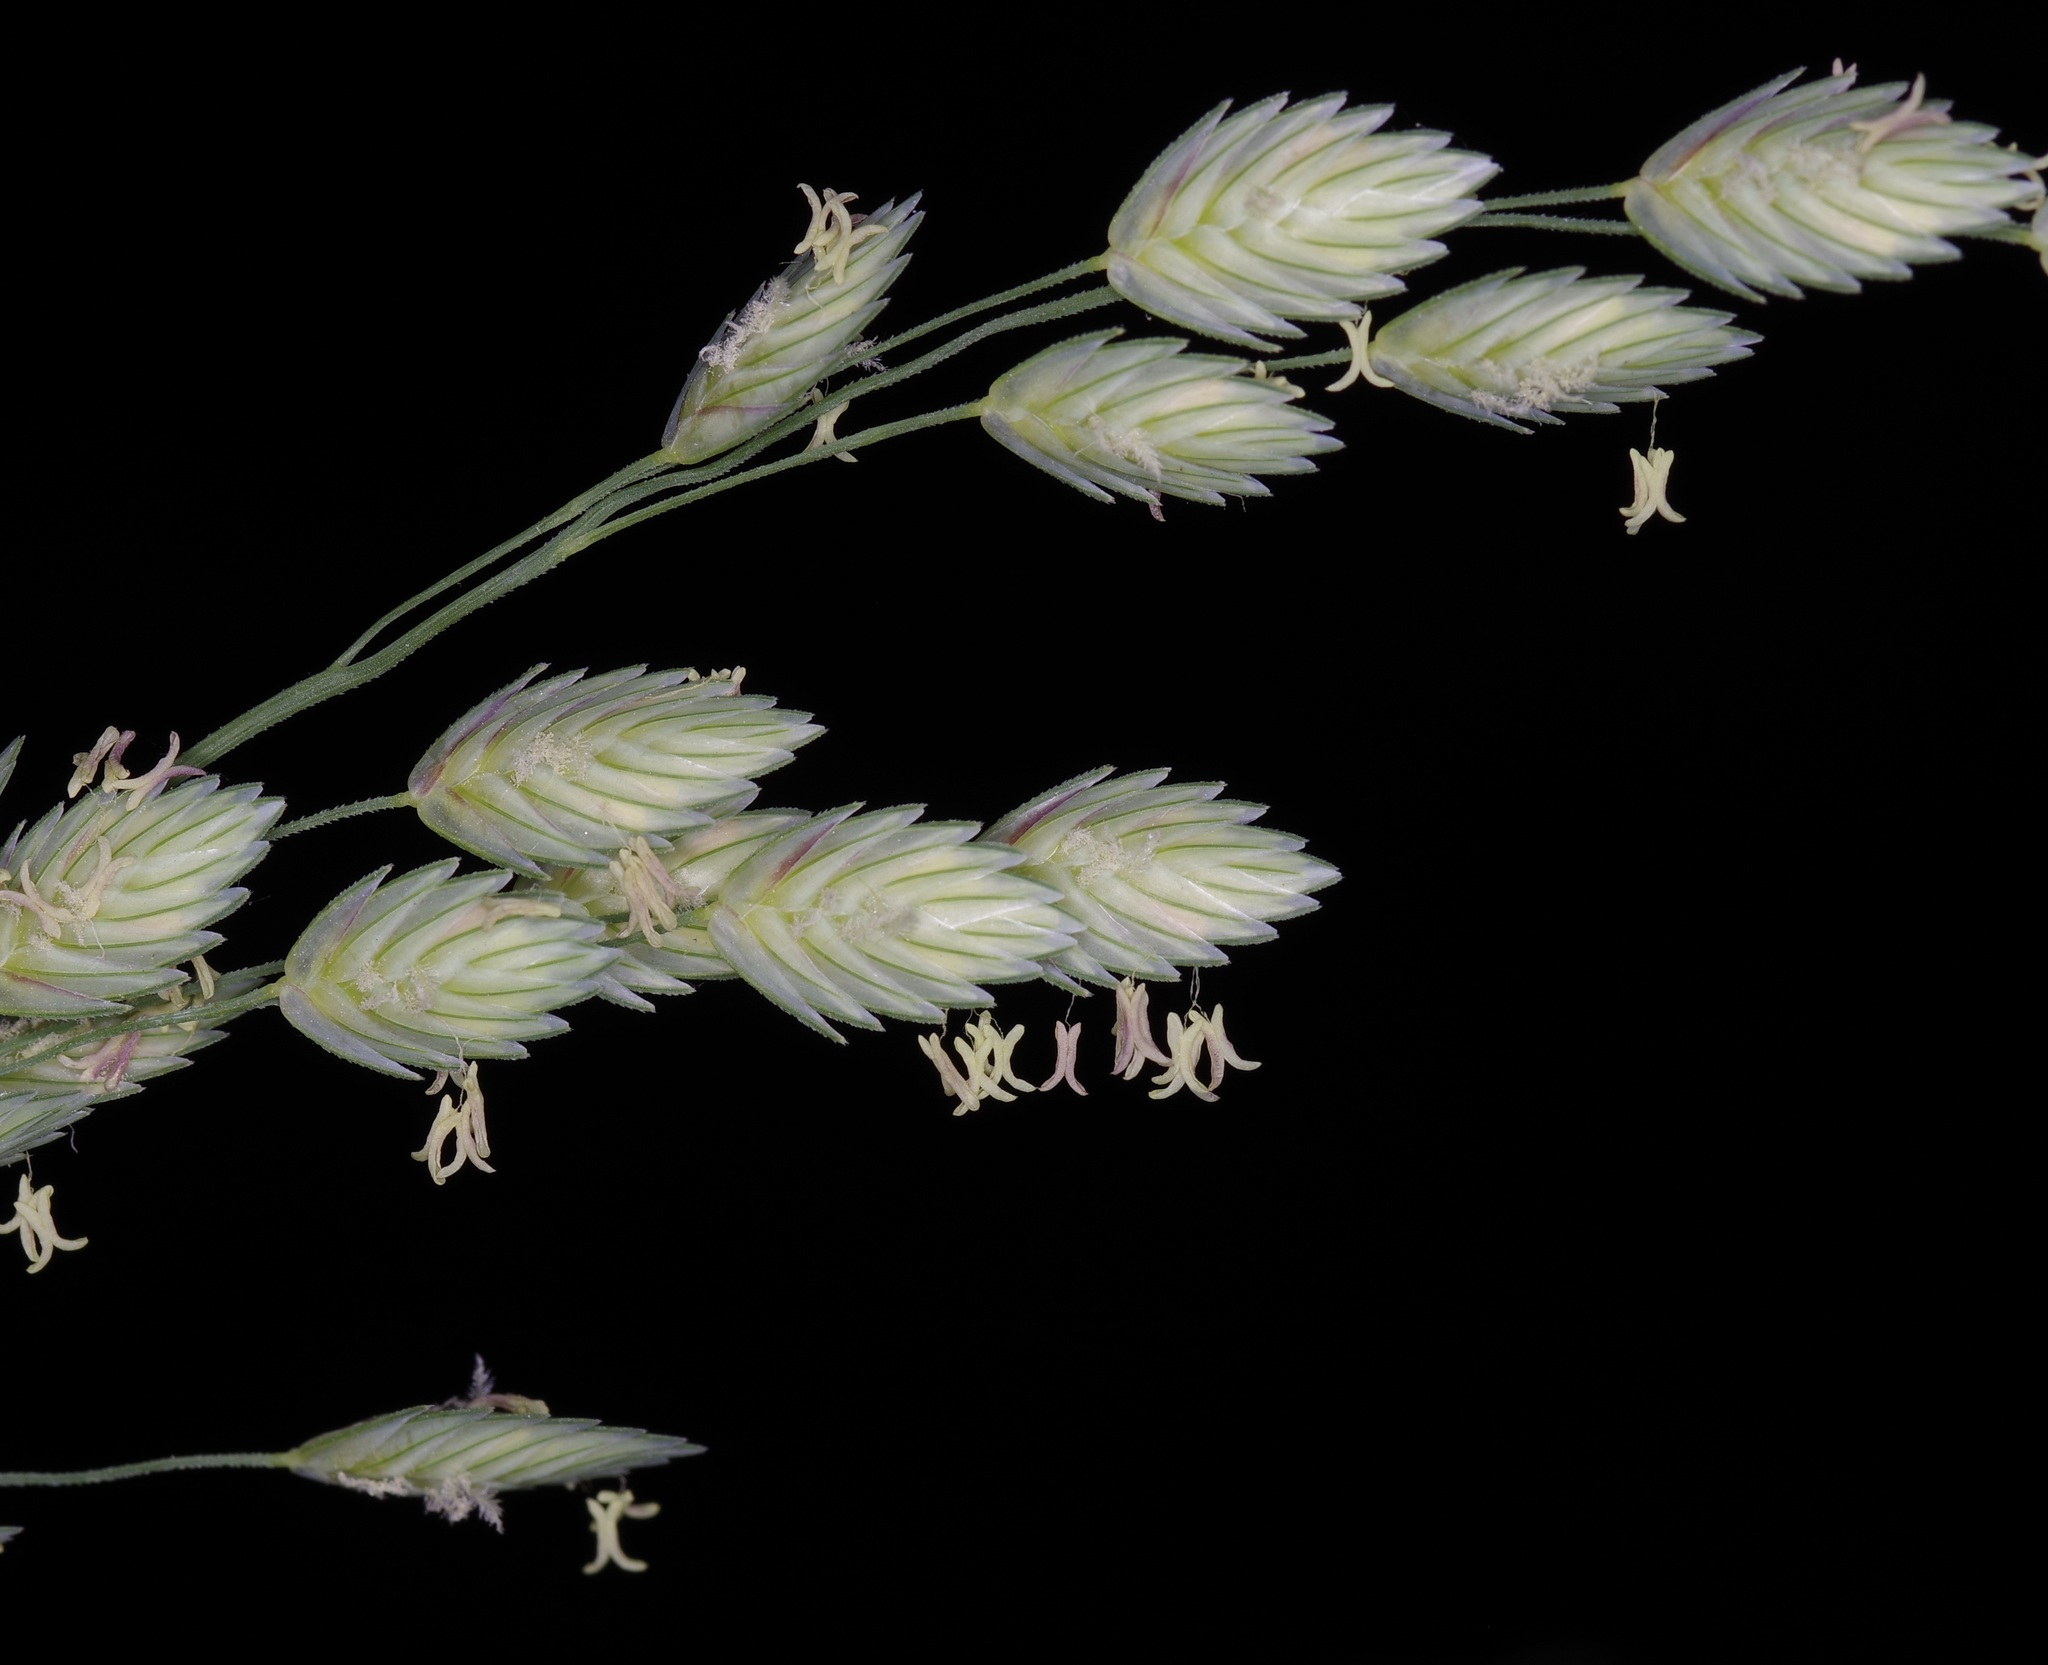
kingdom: Plantae
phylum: Tracheophyta
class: Liliopsida
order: Poales
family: Poaceae
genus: Eragrostis
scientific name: Eragrostis superba
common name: Wilman lovegrass
